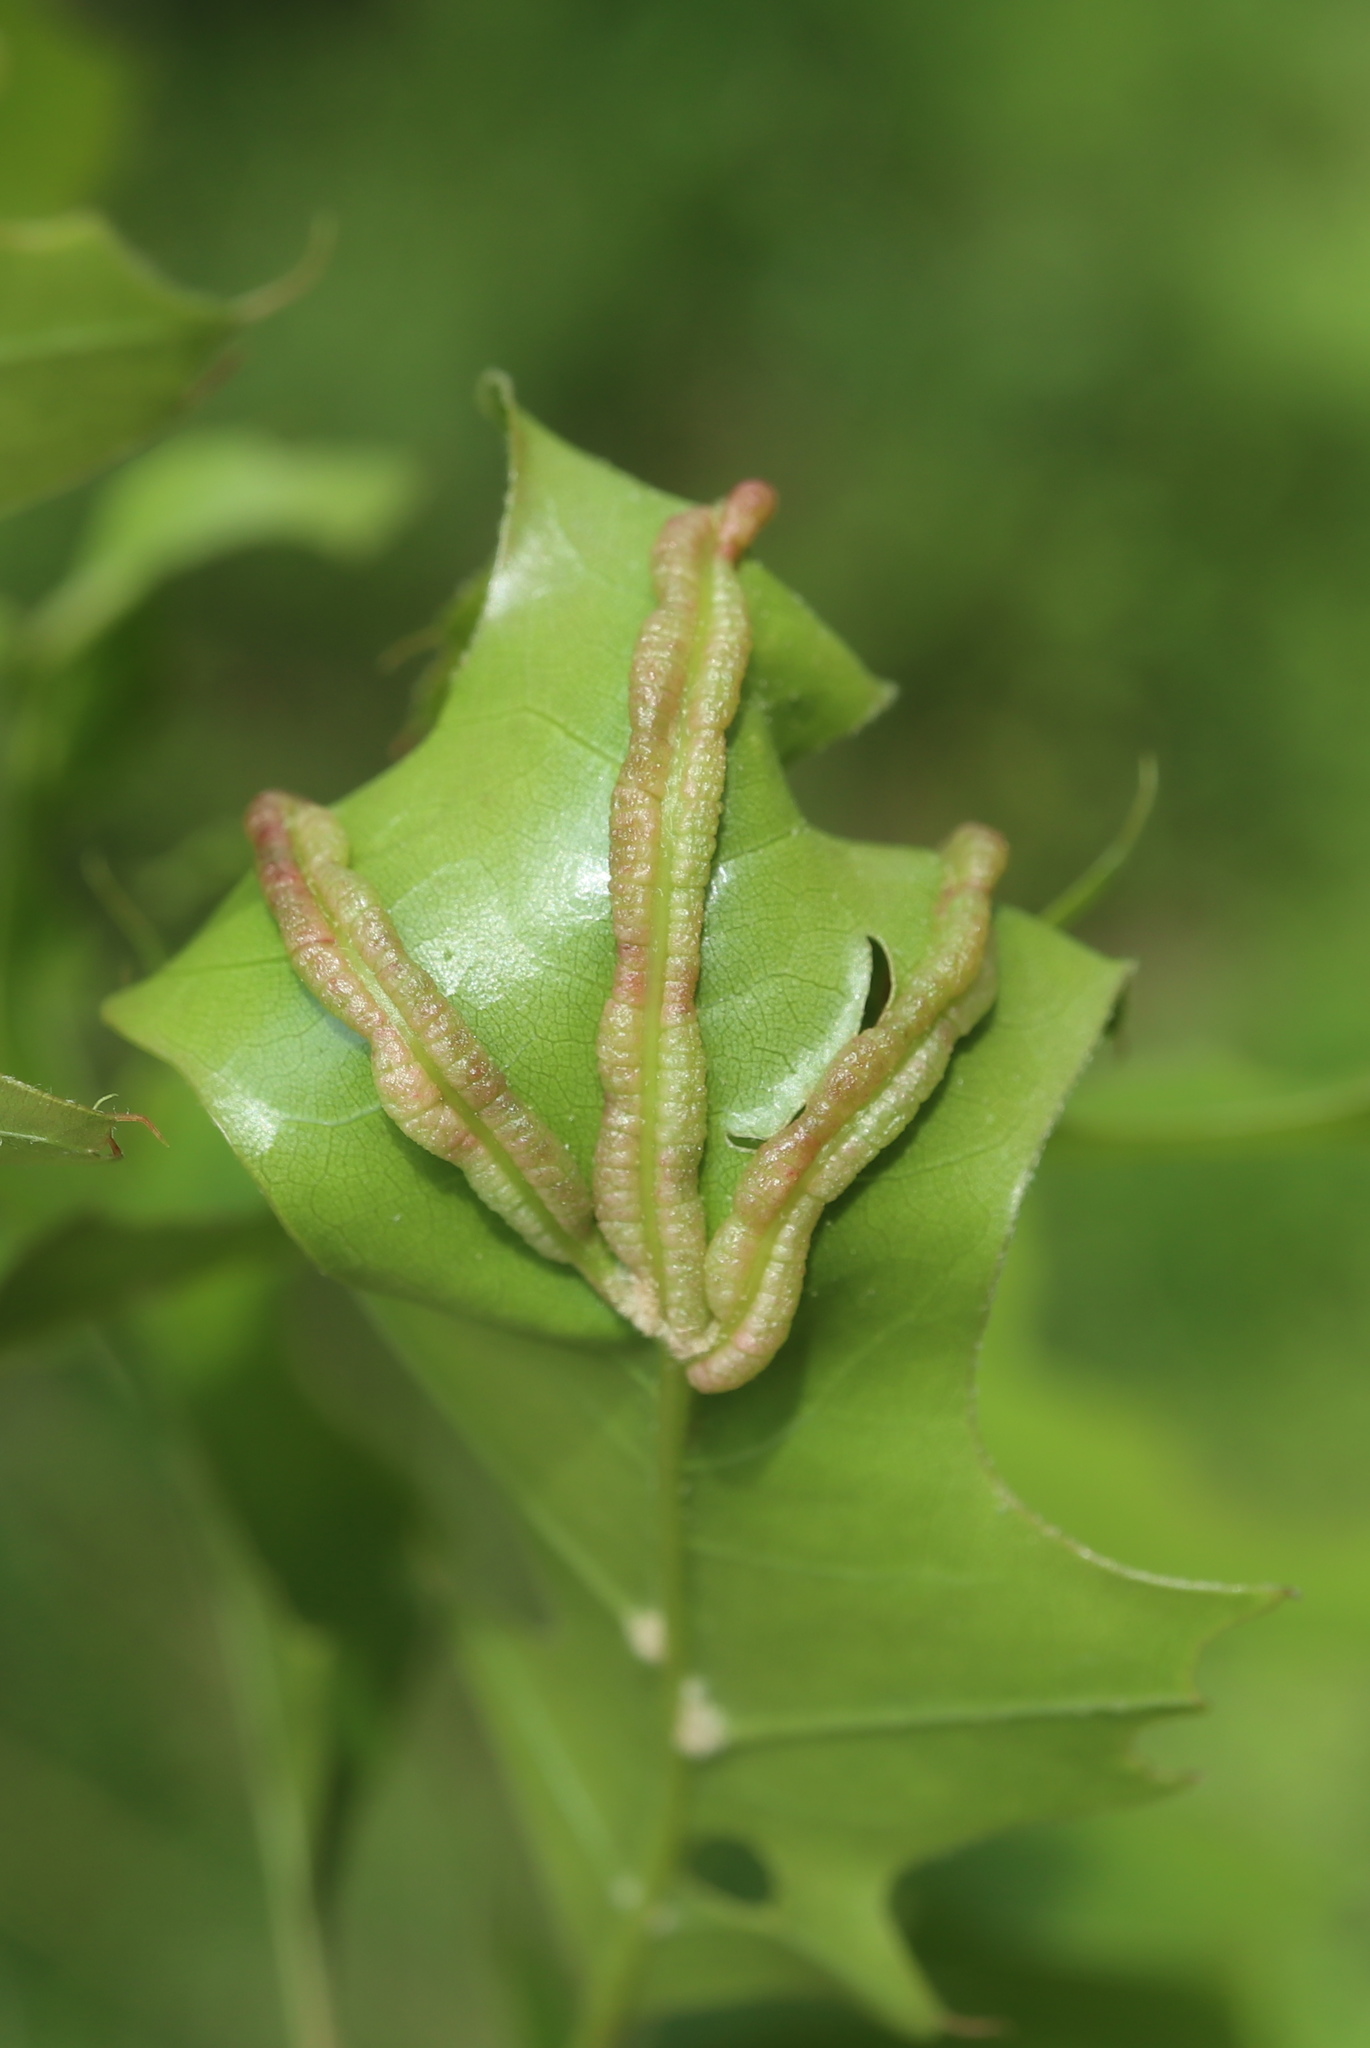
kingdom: Animalia
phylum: Arthropoda
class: Insecta
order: Diptera
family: Cecidomyiidae
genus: Macrodiplosis
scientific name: Macrodiplosis q-orucum
